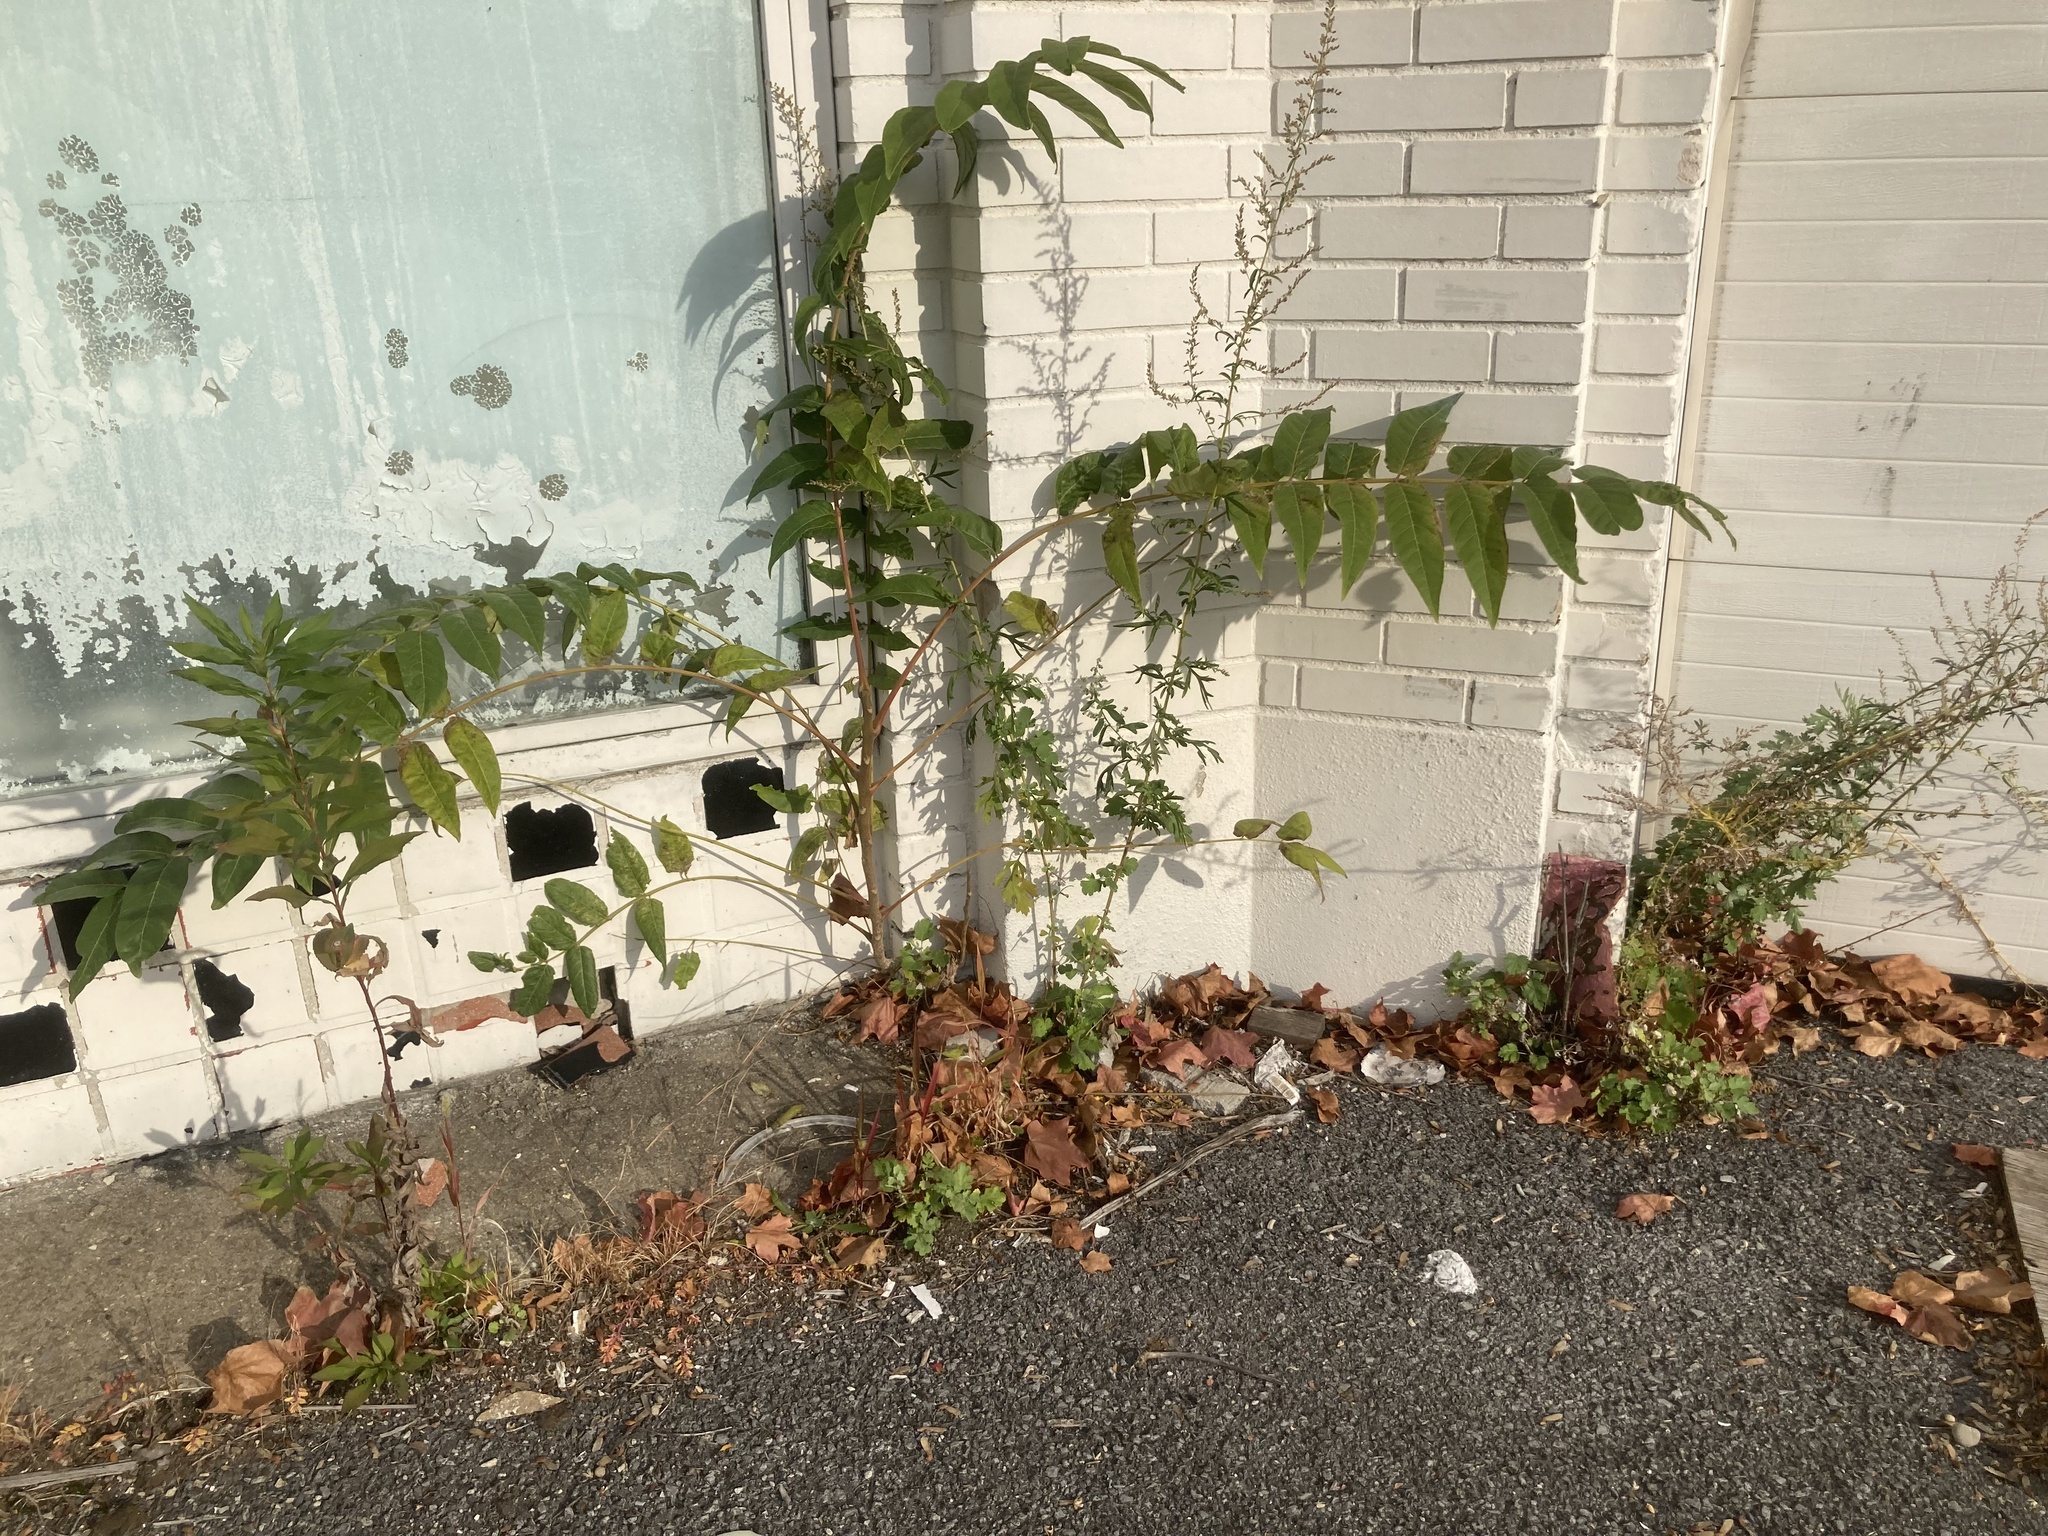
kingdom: Plantae
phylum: Tracheophyta
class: Magnoliopsida
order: Sapindales
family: Simaroubaceae
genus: Ailanthus
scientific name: Ailanthus altissima
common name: Tree-of-heaven
